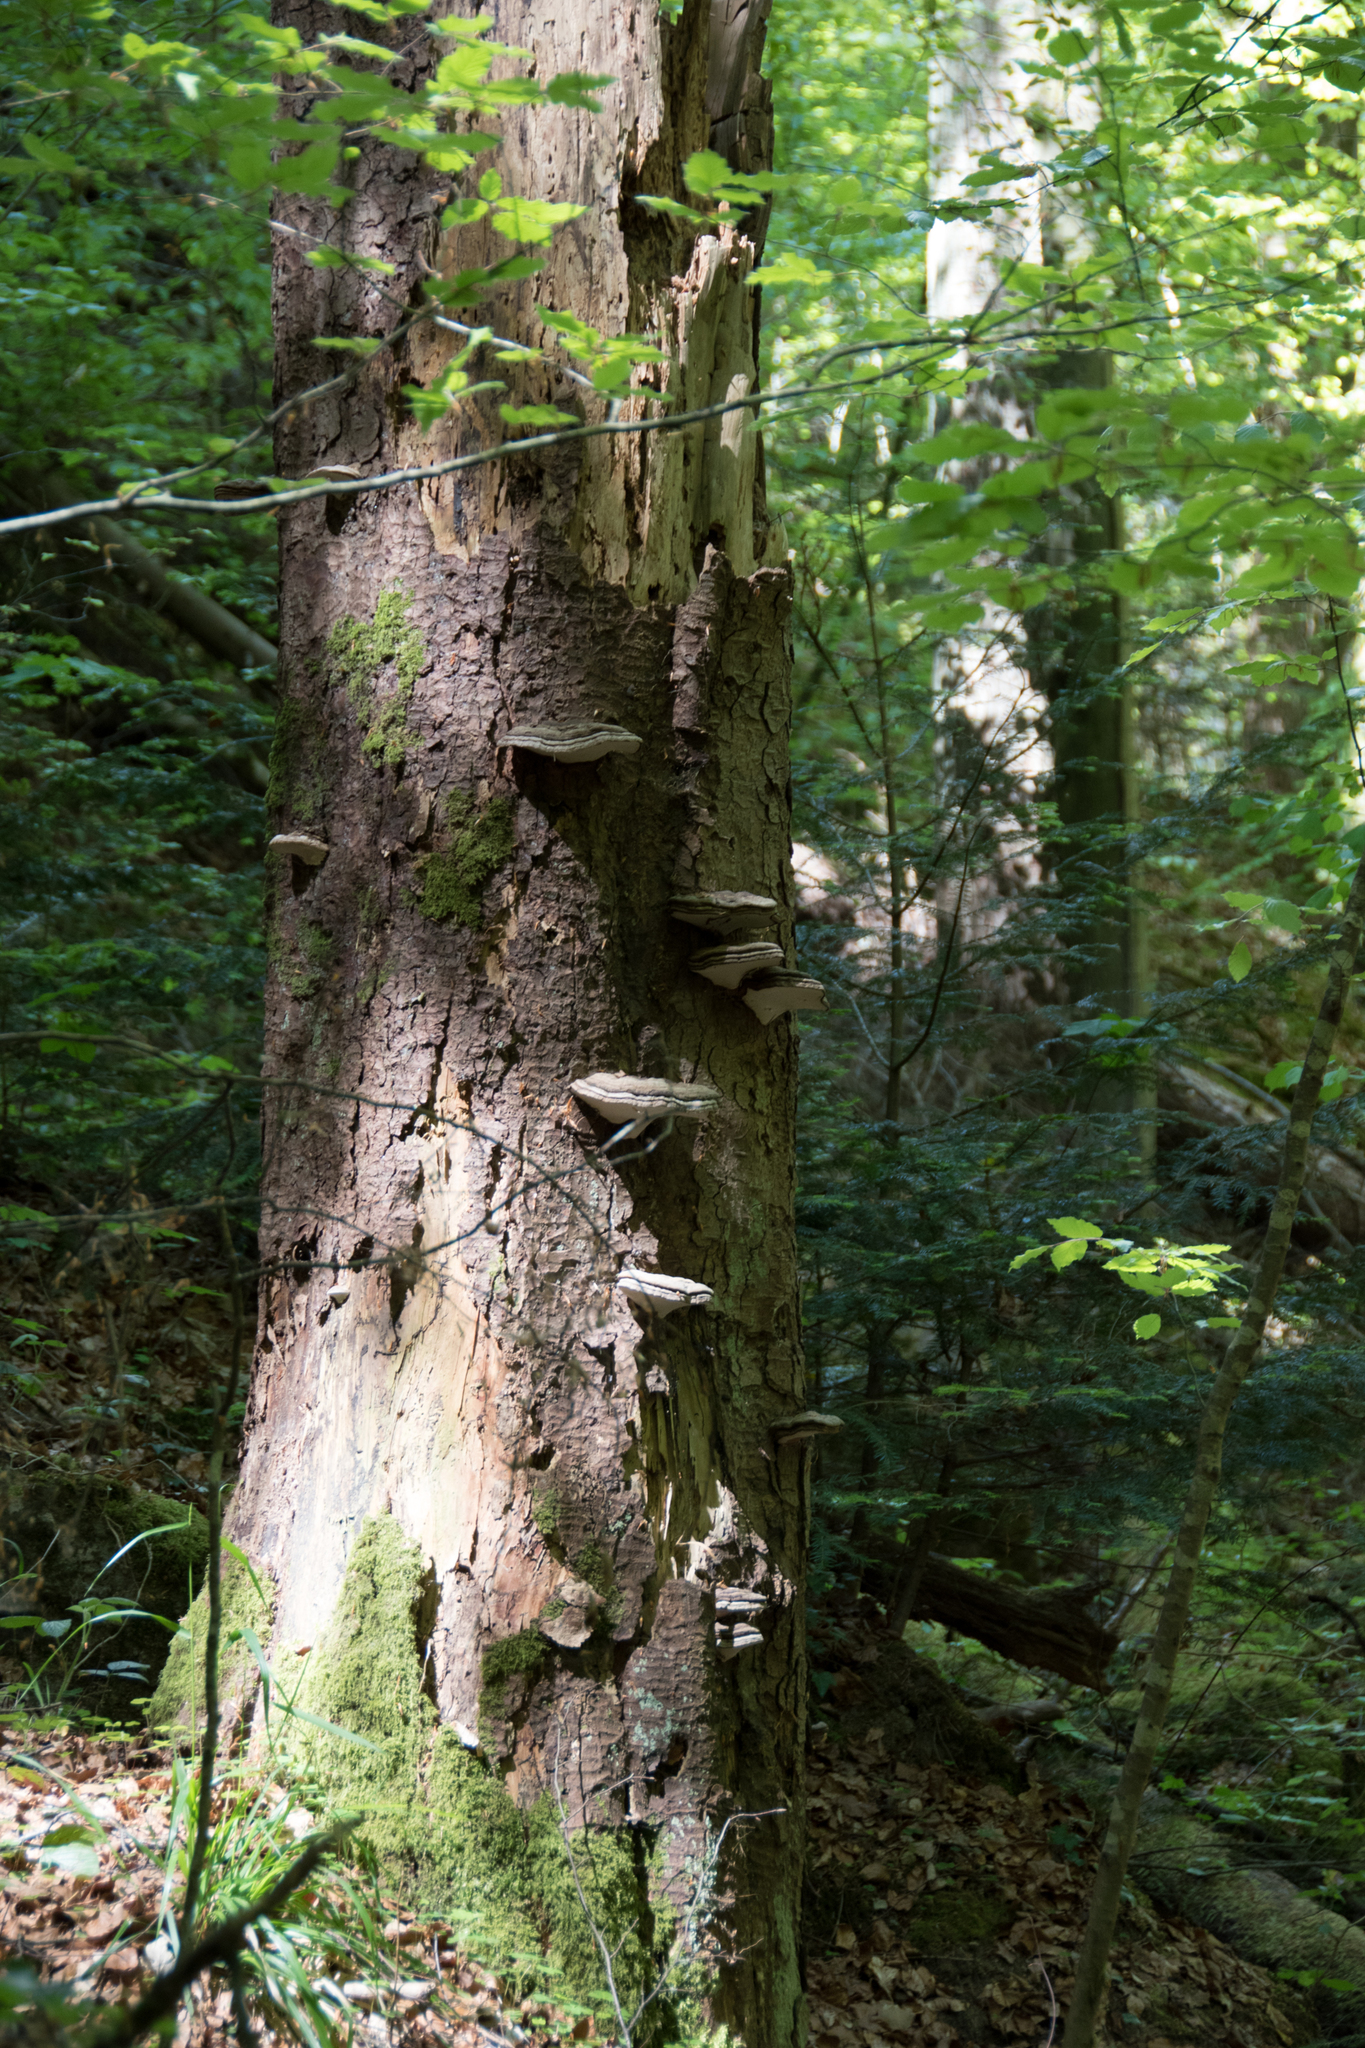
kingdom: Fungi
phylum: Basidiomycota
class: Agaricomycetes
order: Polyporales
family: Polyporaceae
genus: Fomes
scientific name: Fomes fomentarius
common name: Hoof fungus
